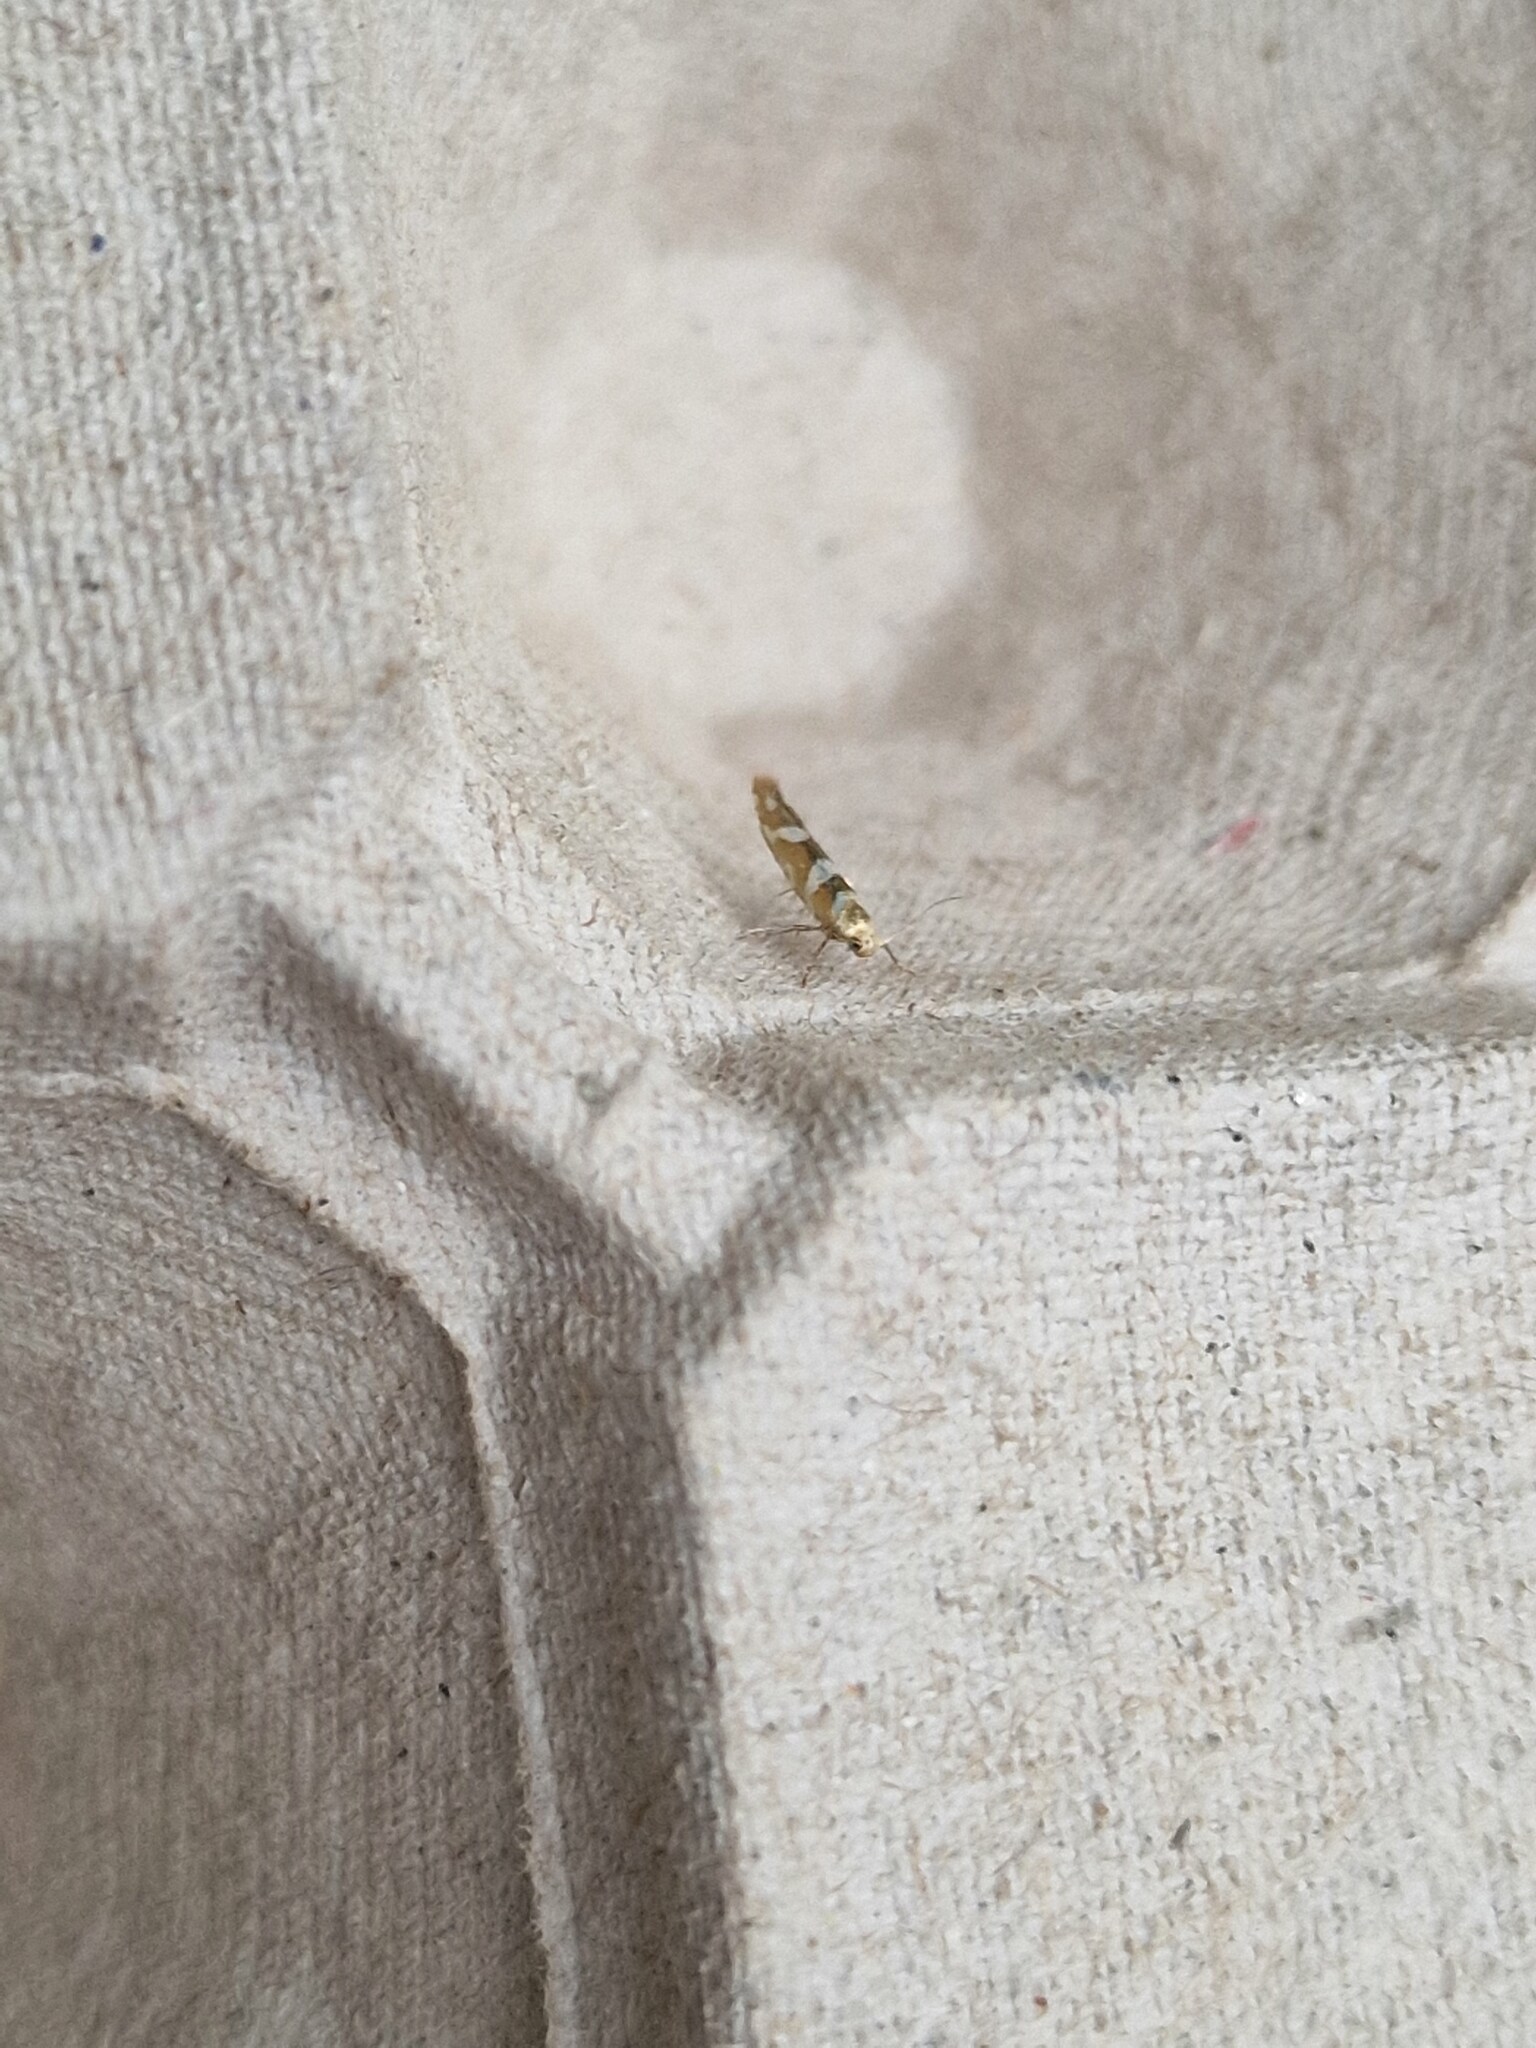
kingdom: Animalia
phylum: Arthropoda
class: Insecta
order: Lepidoptera
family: Argyresthiidae
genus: Argyresthia
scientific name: Argyresthia goedartella
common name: Golden argent
